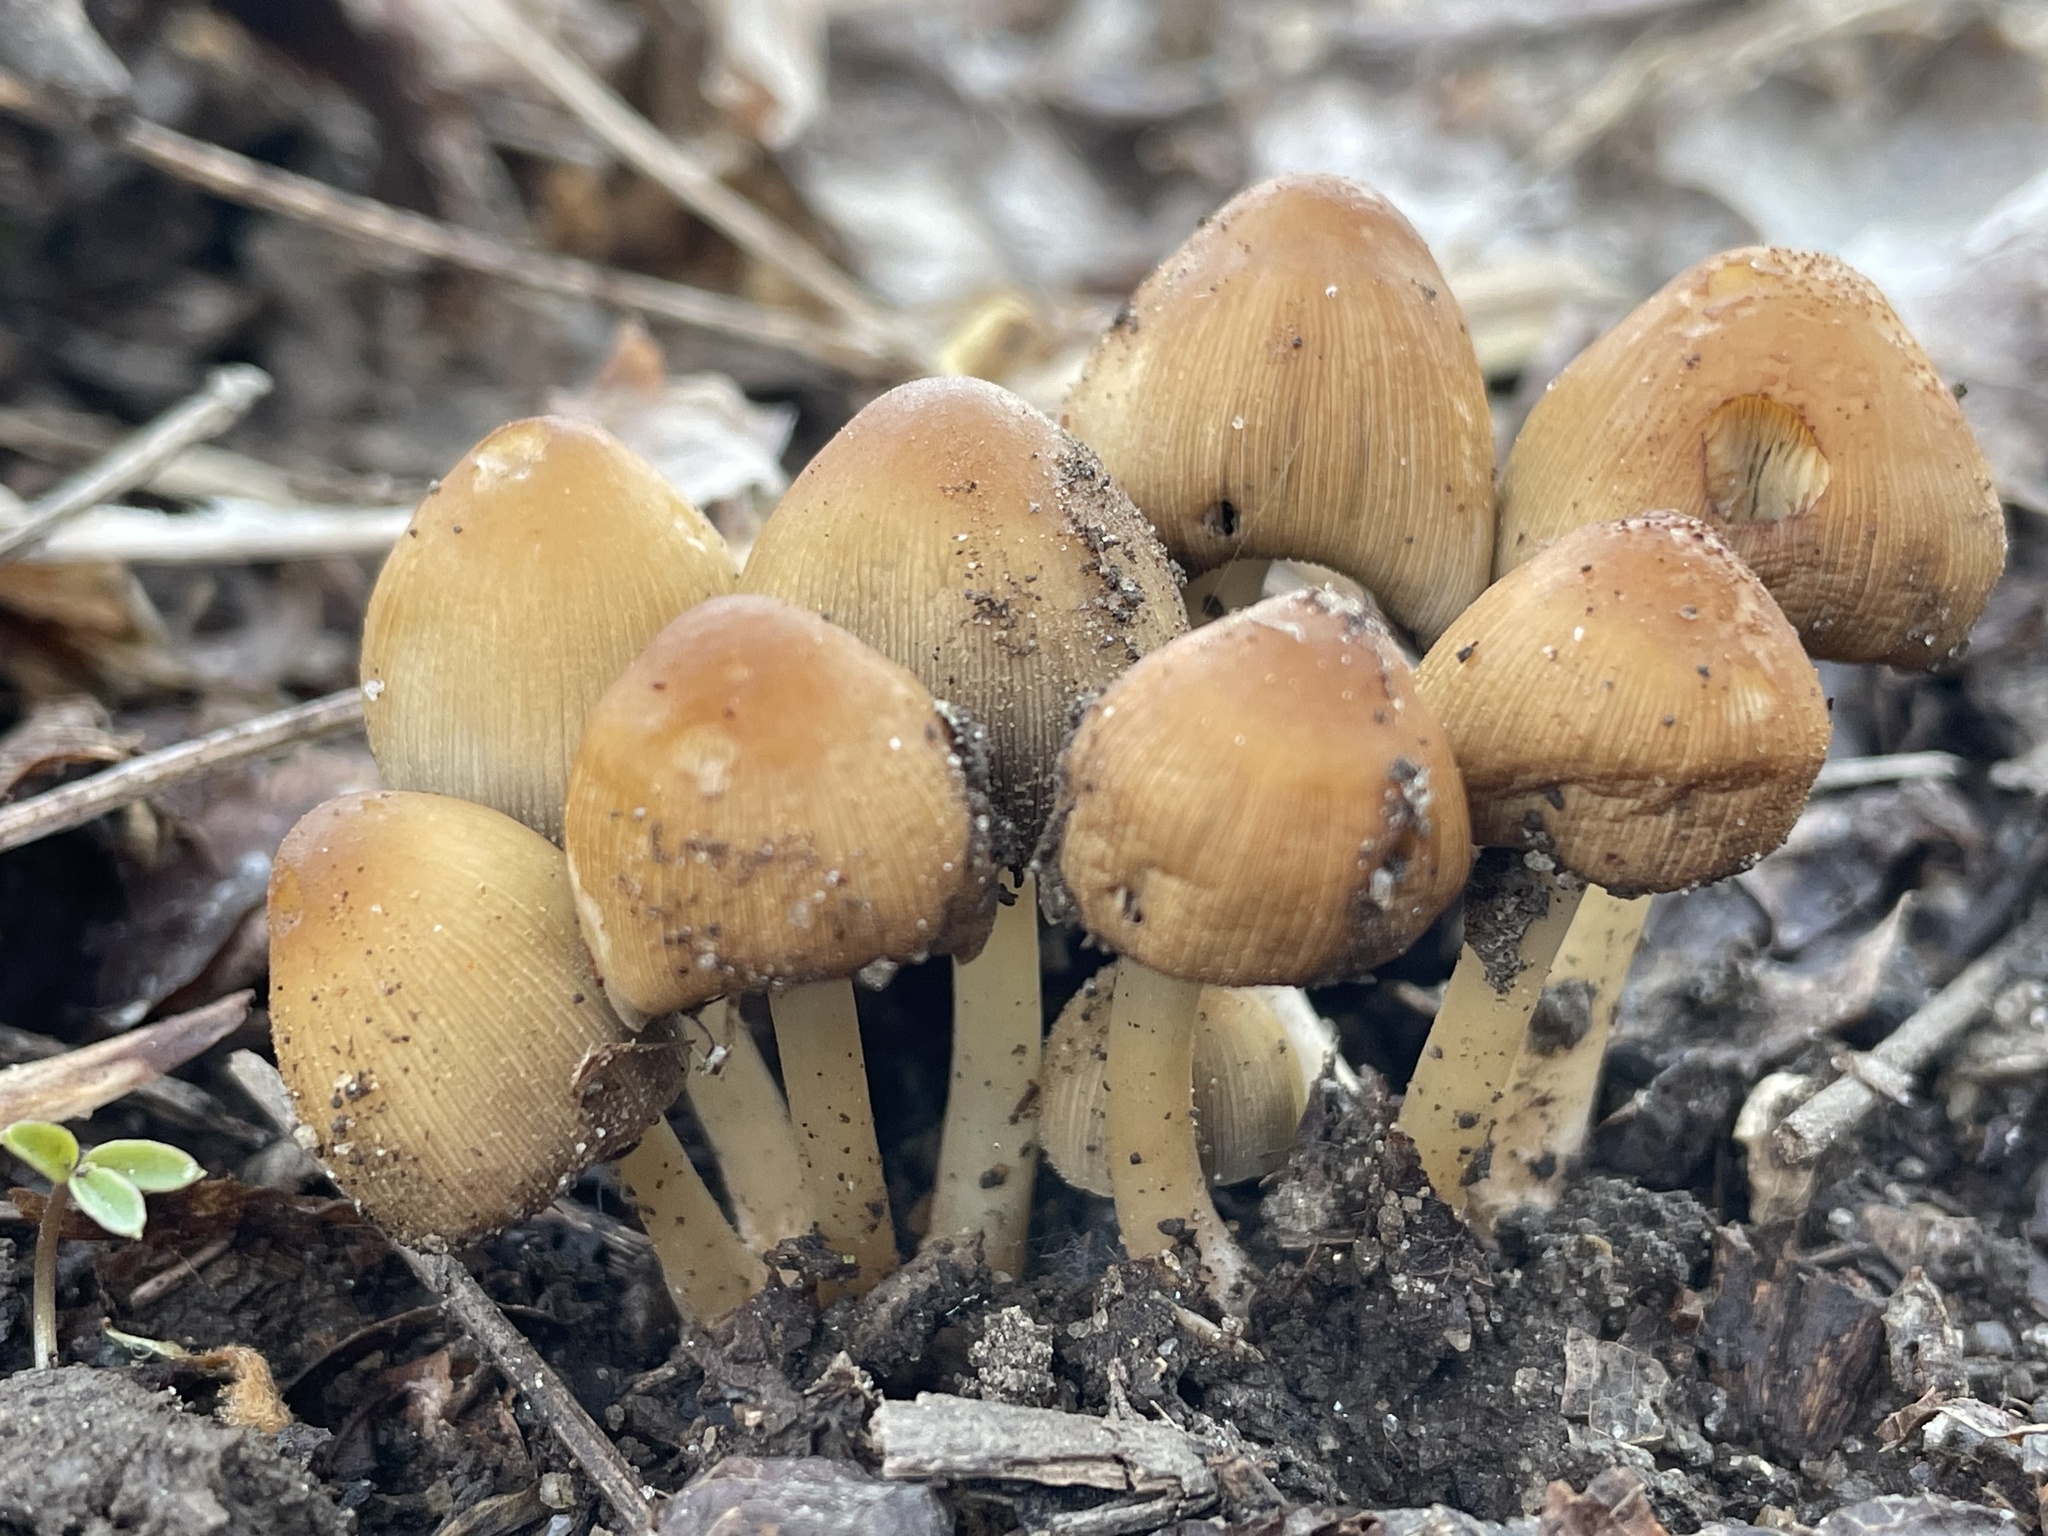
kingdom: Fungi
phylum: Basidiomycota
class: Agaricomycetes
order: Agaricales
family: Psathyrellaceae
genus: Coprinellus
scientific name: Coprinellus micaceus
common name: Glistening ink-cap
